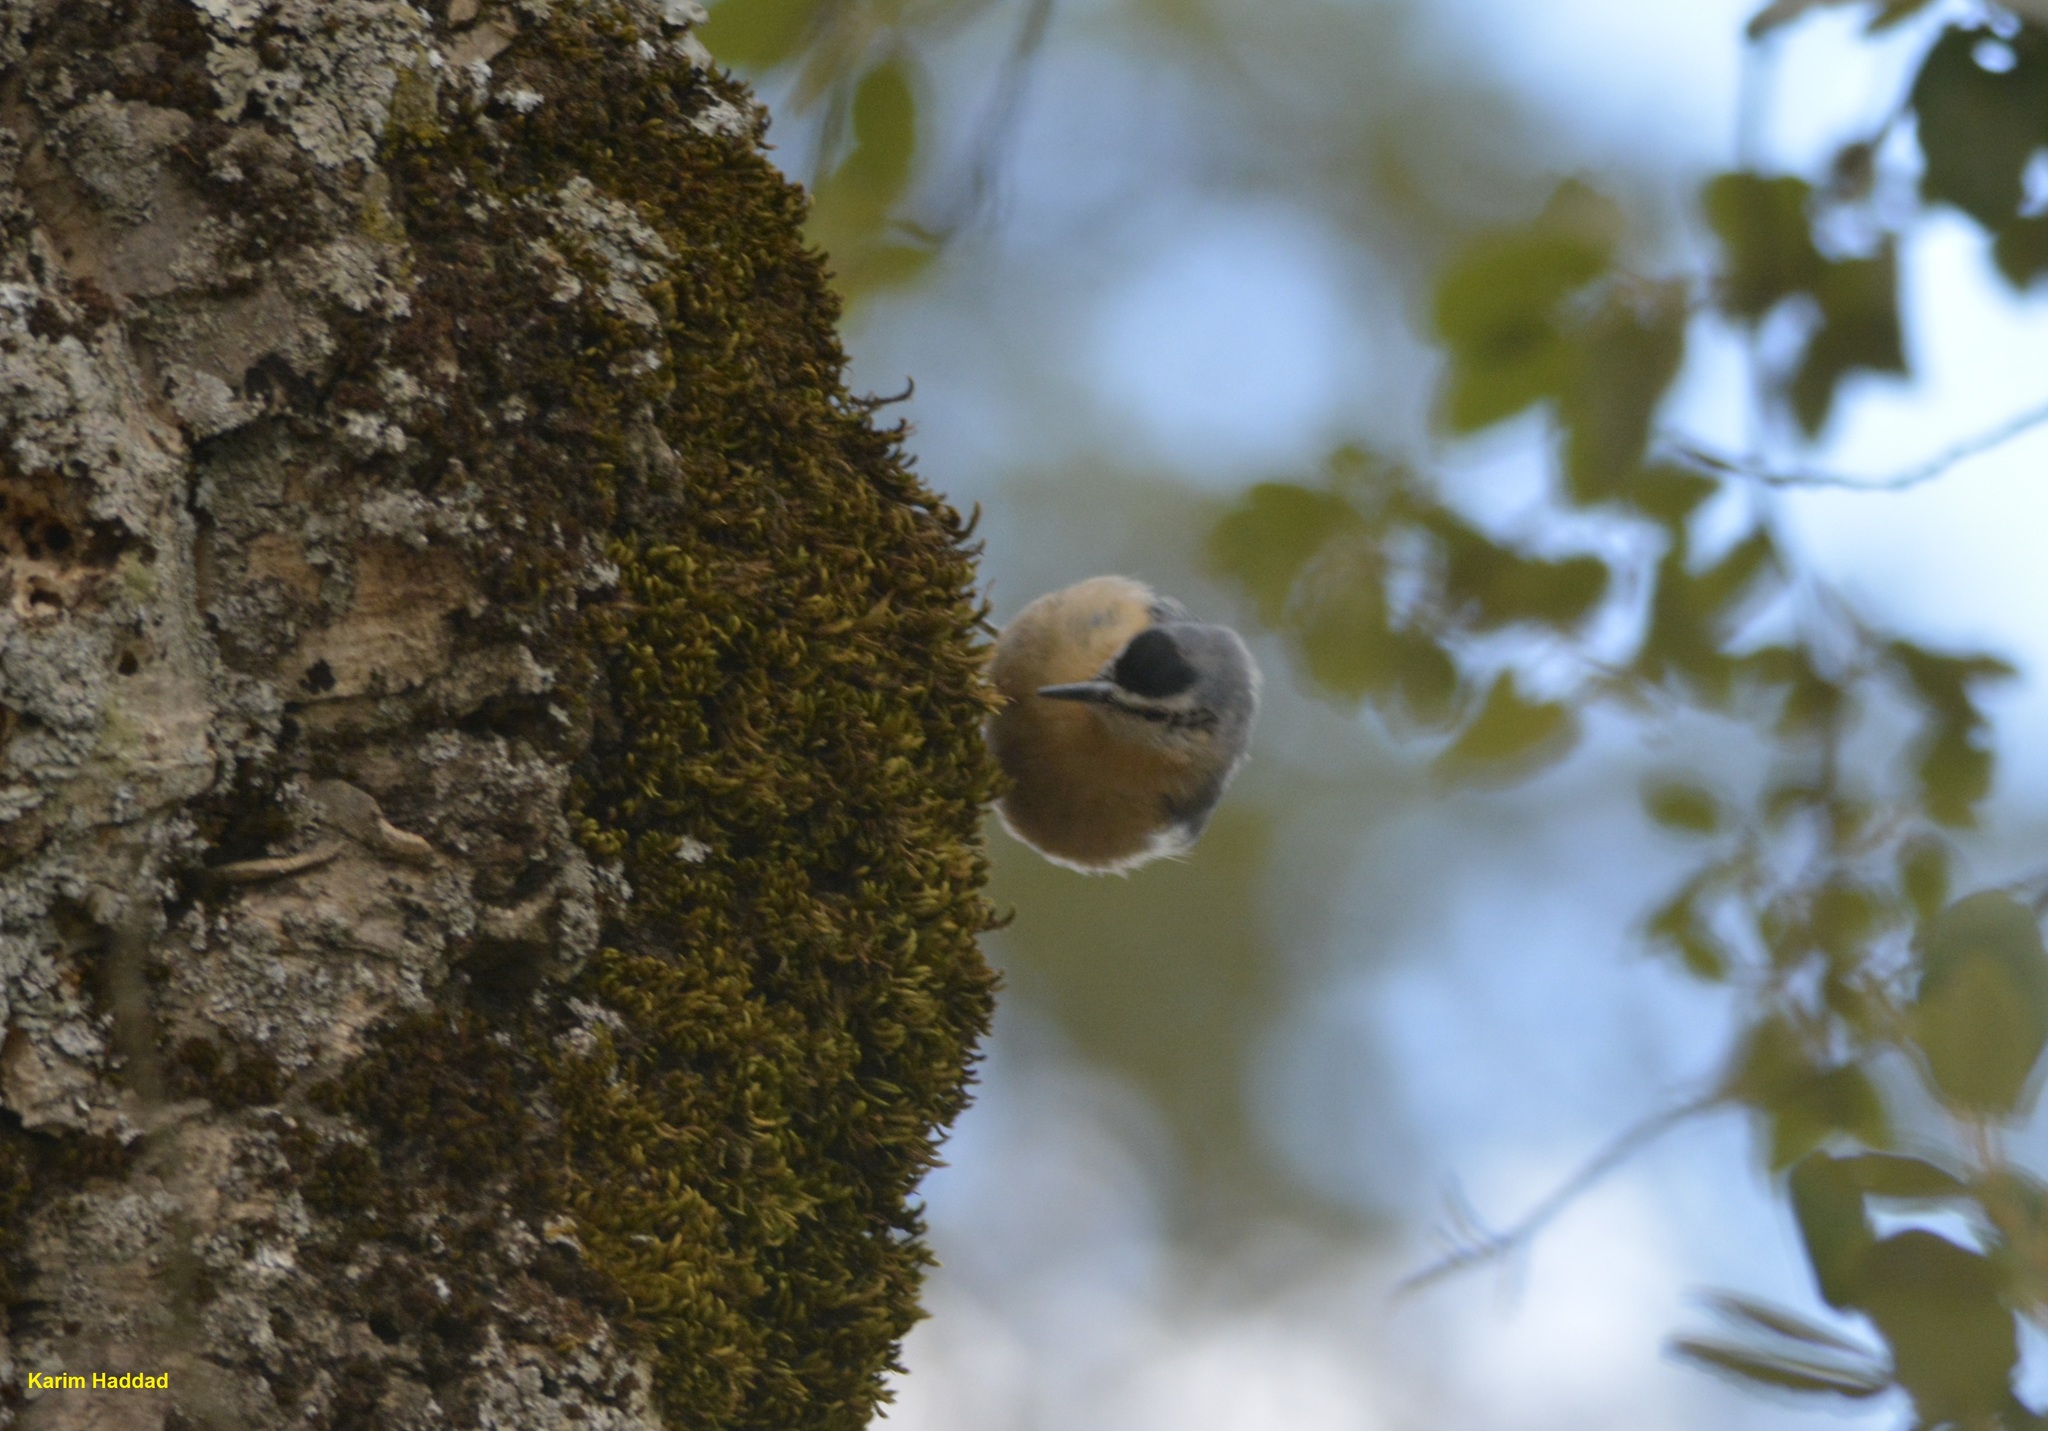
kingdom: Animalia
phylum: Chordata
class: Aves
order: Passeriformes
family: Sittidae
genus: Sitta
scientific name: Sitta ledanti
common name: Algerian nuthatch
